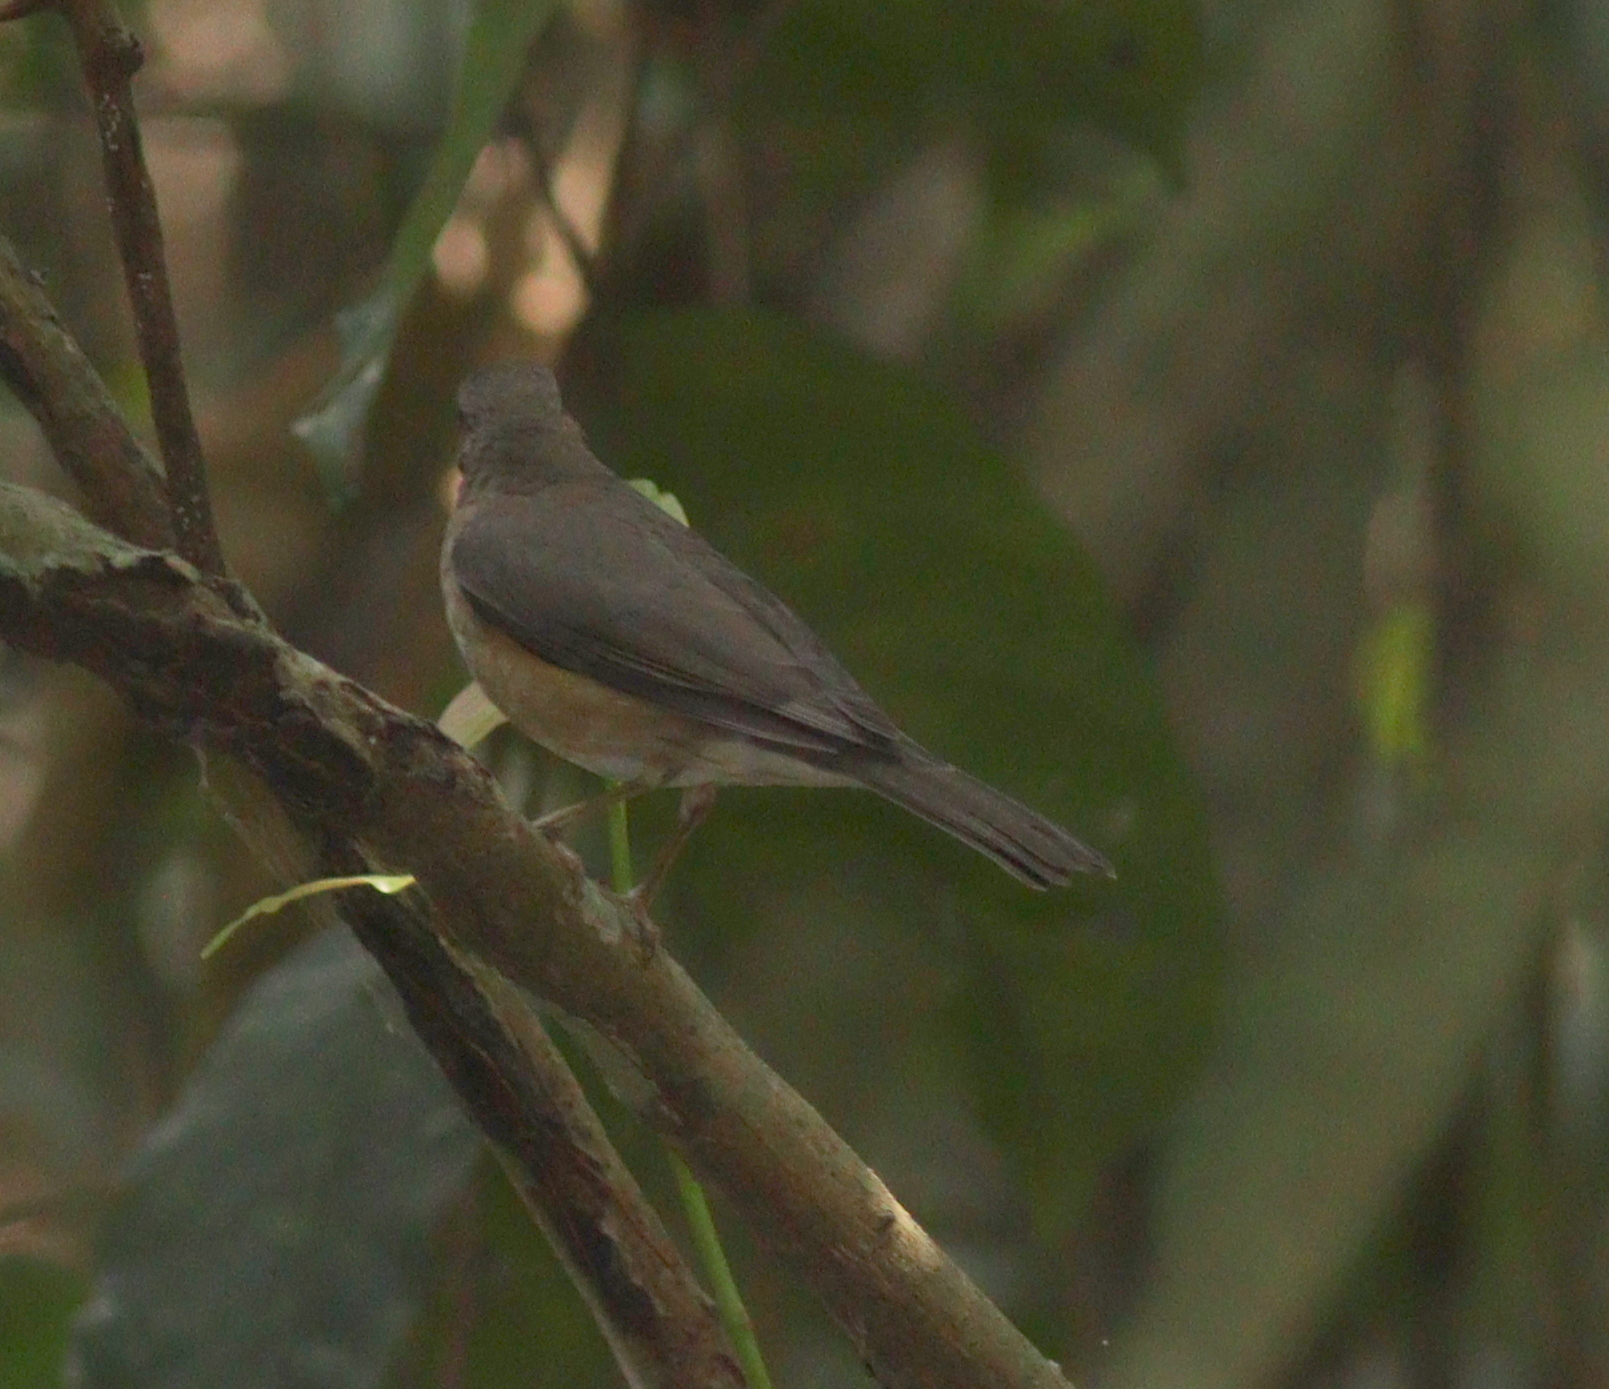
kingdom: Animalia
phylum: Chordata
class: Aves
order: Passeriformes
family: Turdidae
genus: Turdus
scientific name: Turdus pelios
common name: African thrush
